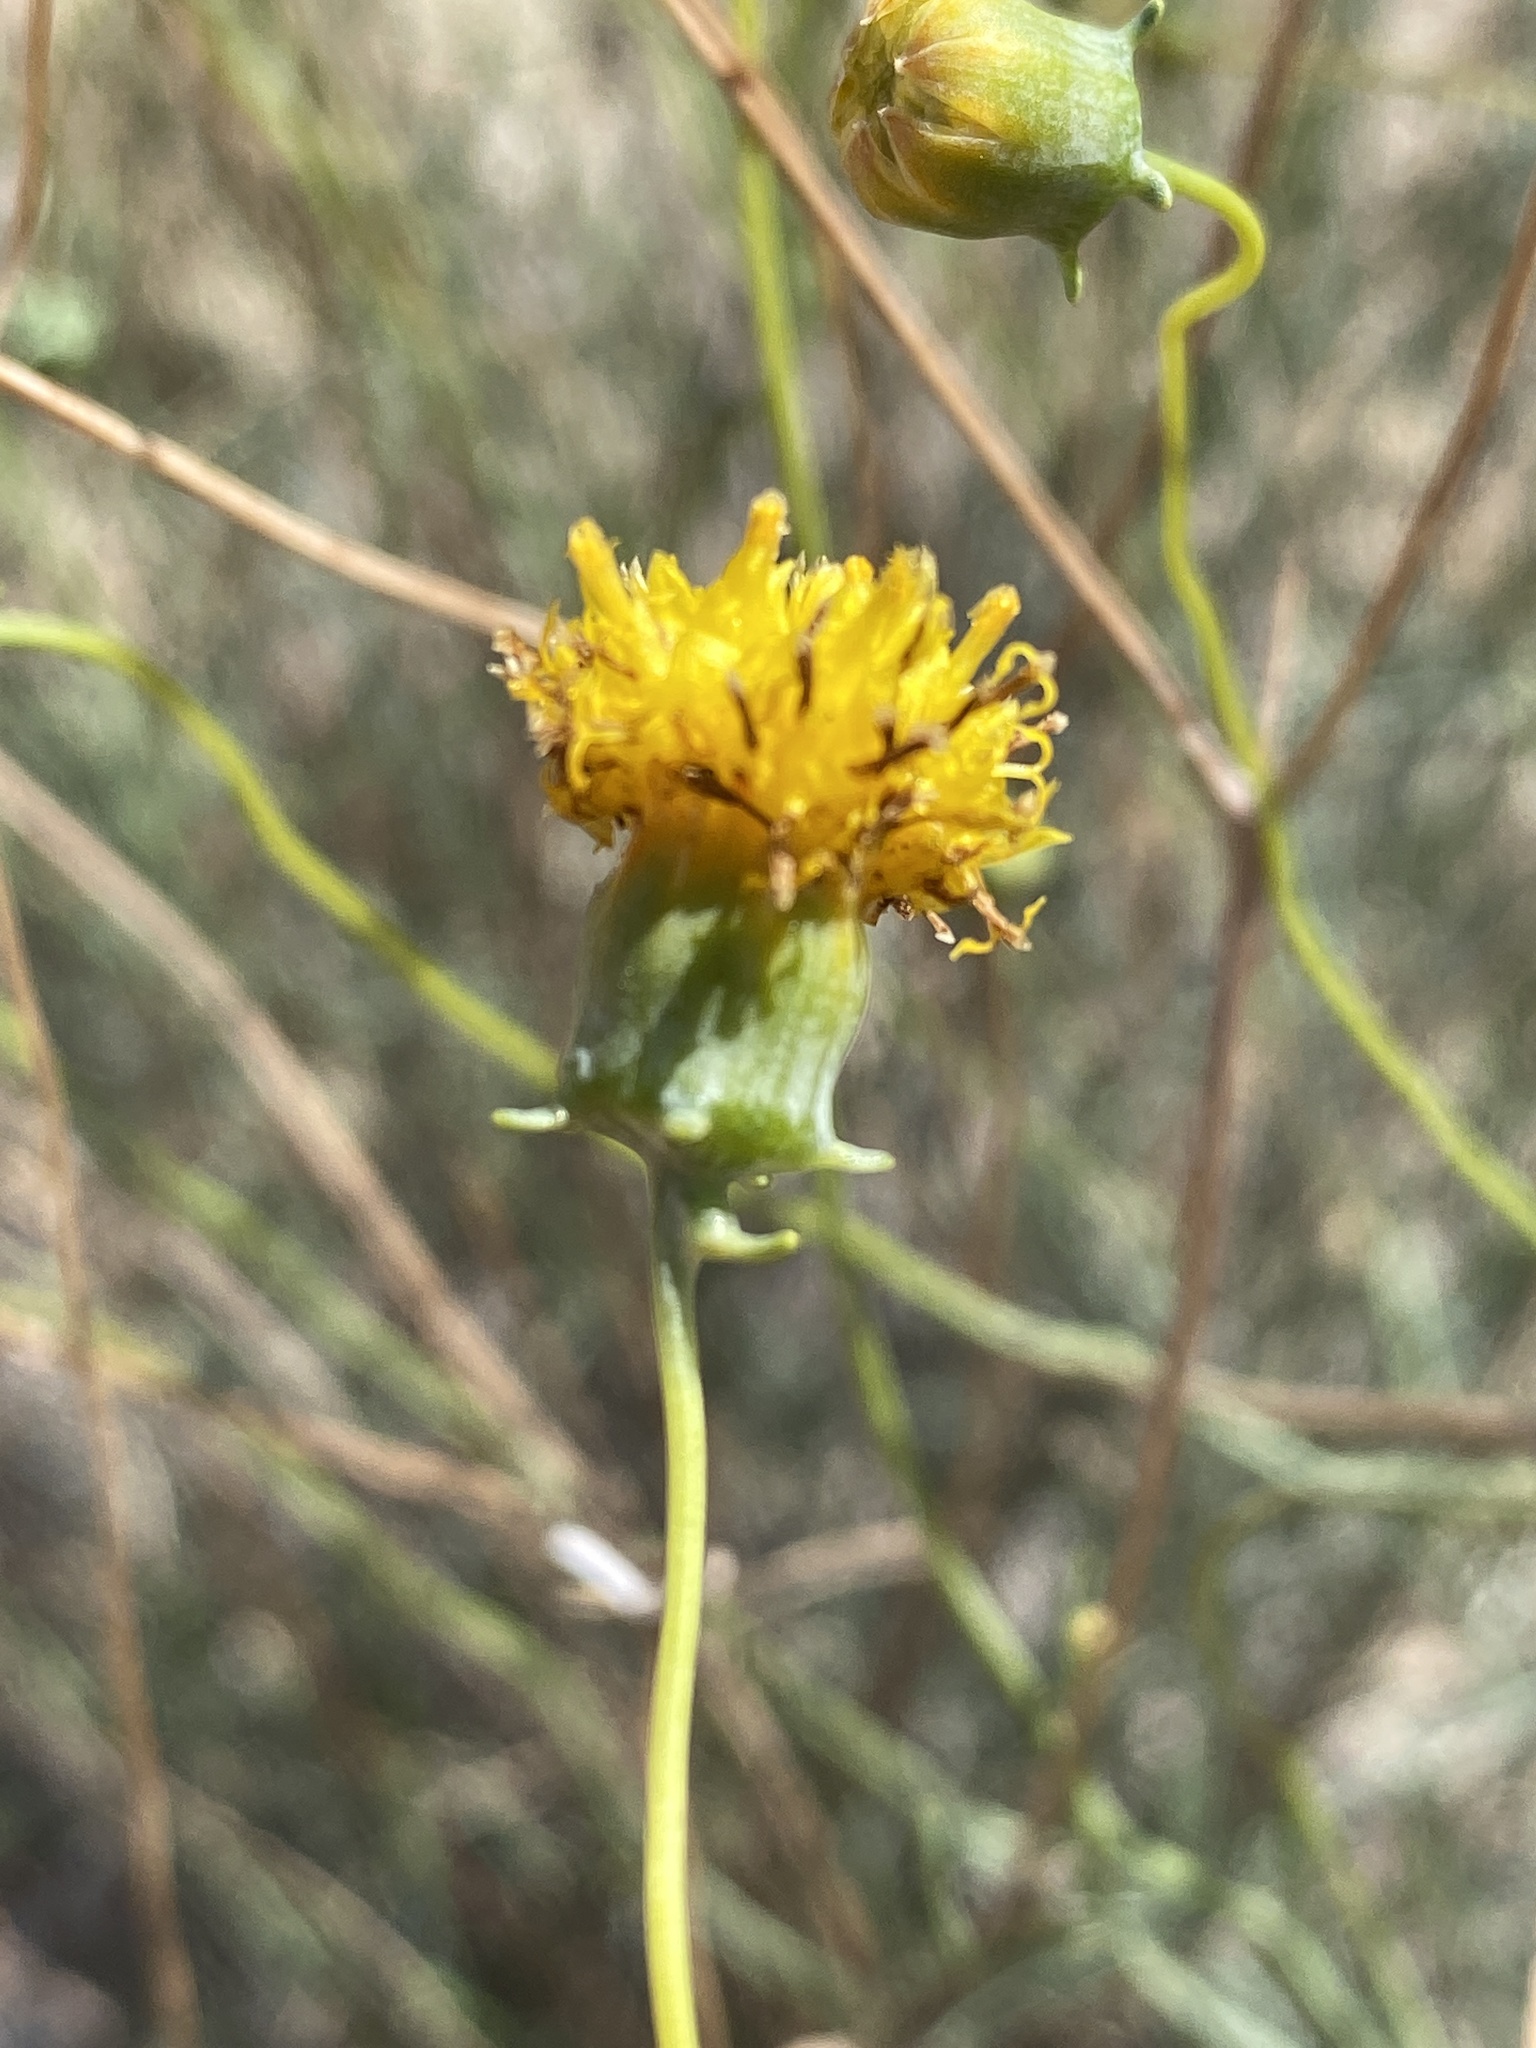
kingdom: Plantae
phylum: Tracheophyta
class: Magnoliopsida
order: Asterales
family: Asteraceae
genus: Thelesperma
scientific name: Thelesperma megapotamicum
